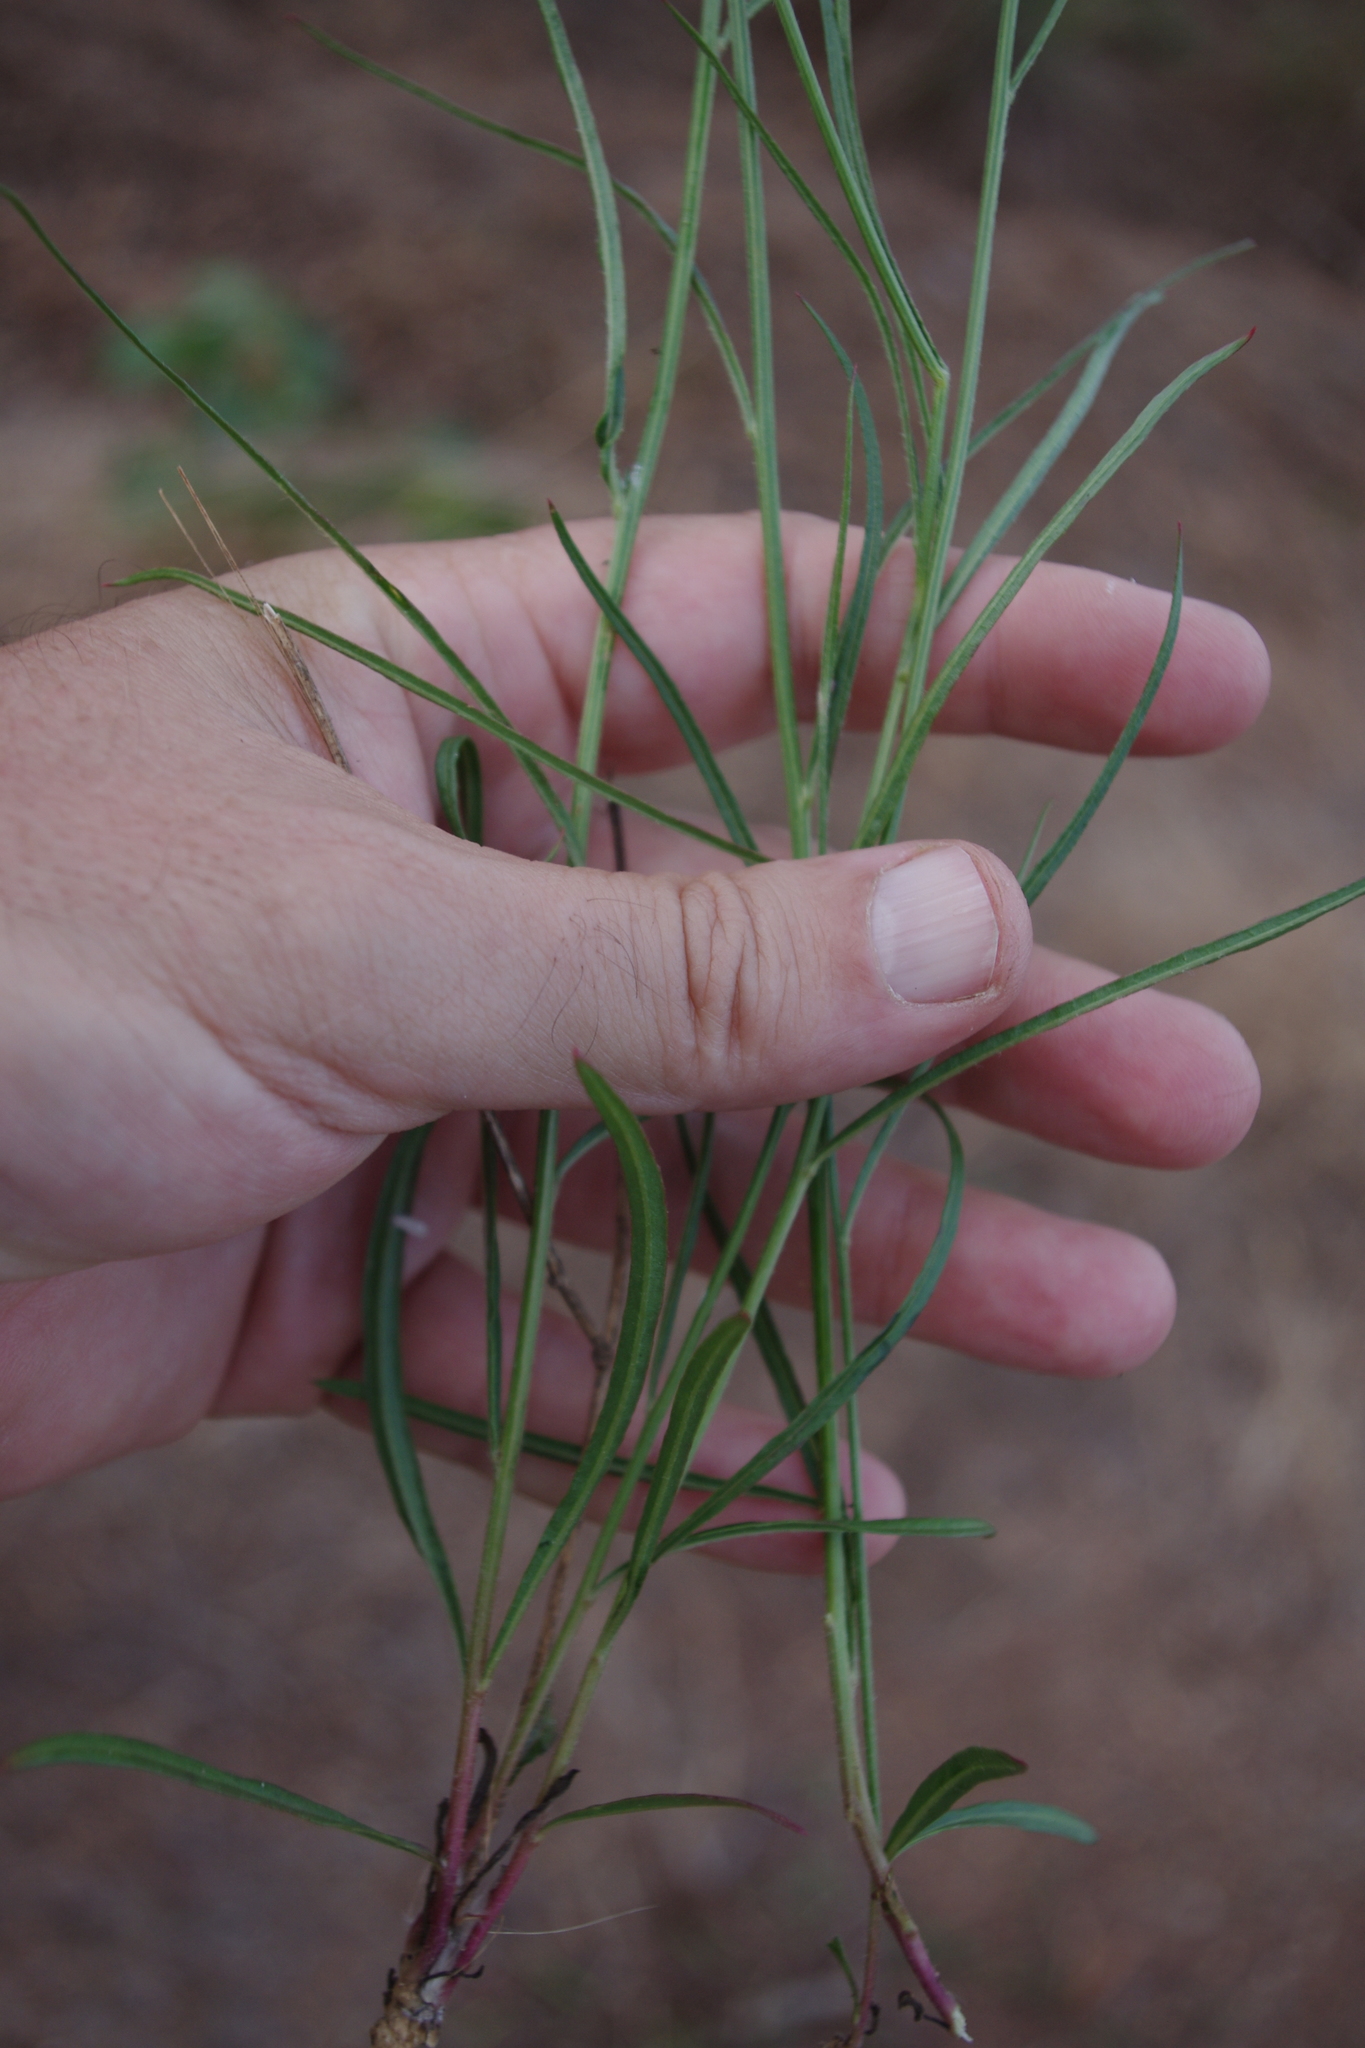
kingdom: Plantae
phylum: Tracheophyta
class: Magnoliopsida
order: Caryophyllales
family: Amaranthaceae
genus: Ptilotus
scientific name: Ptilotus capensis
